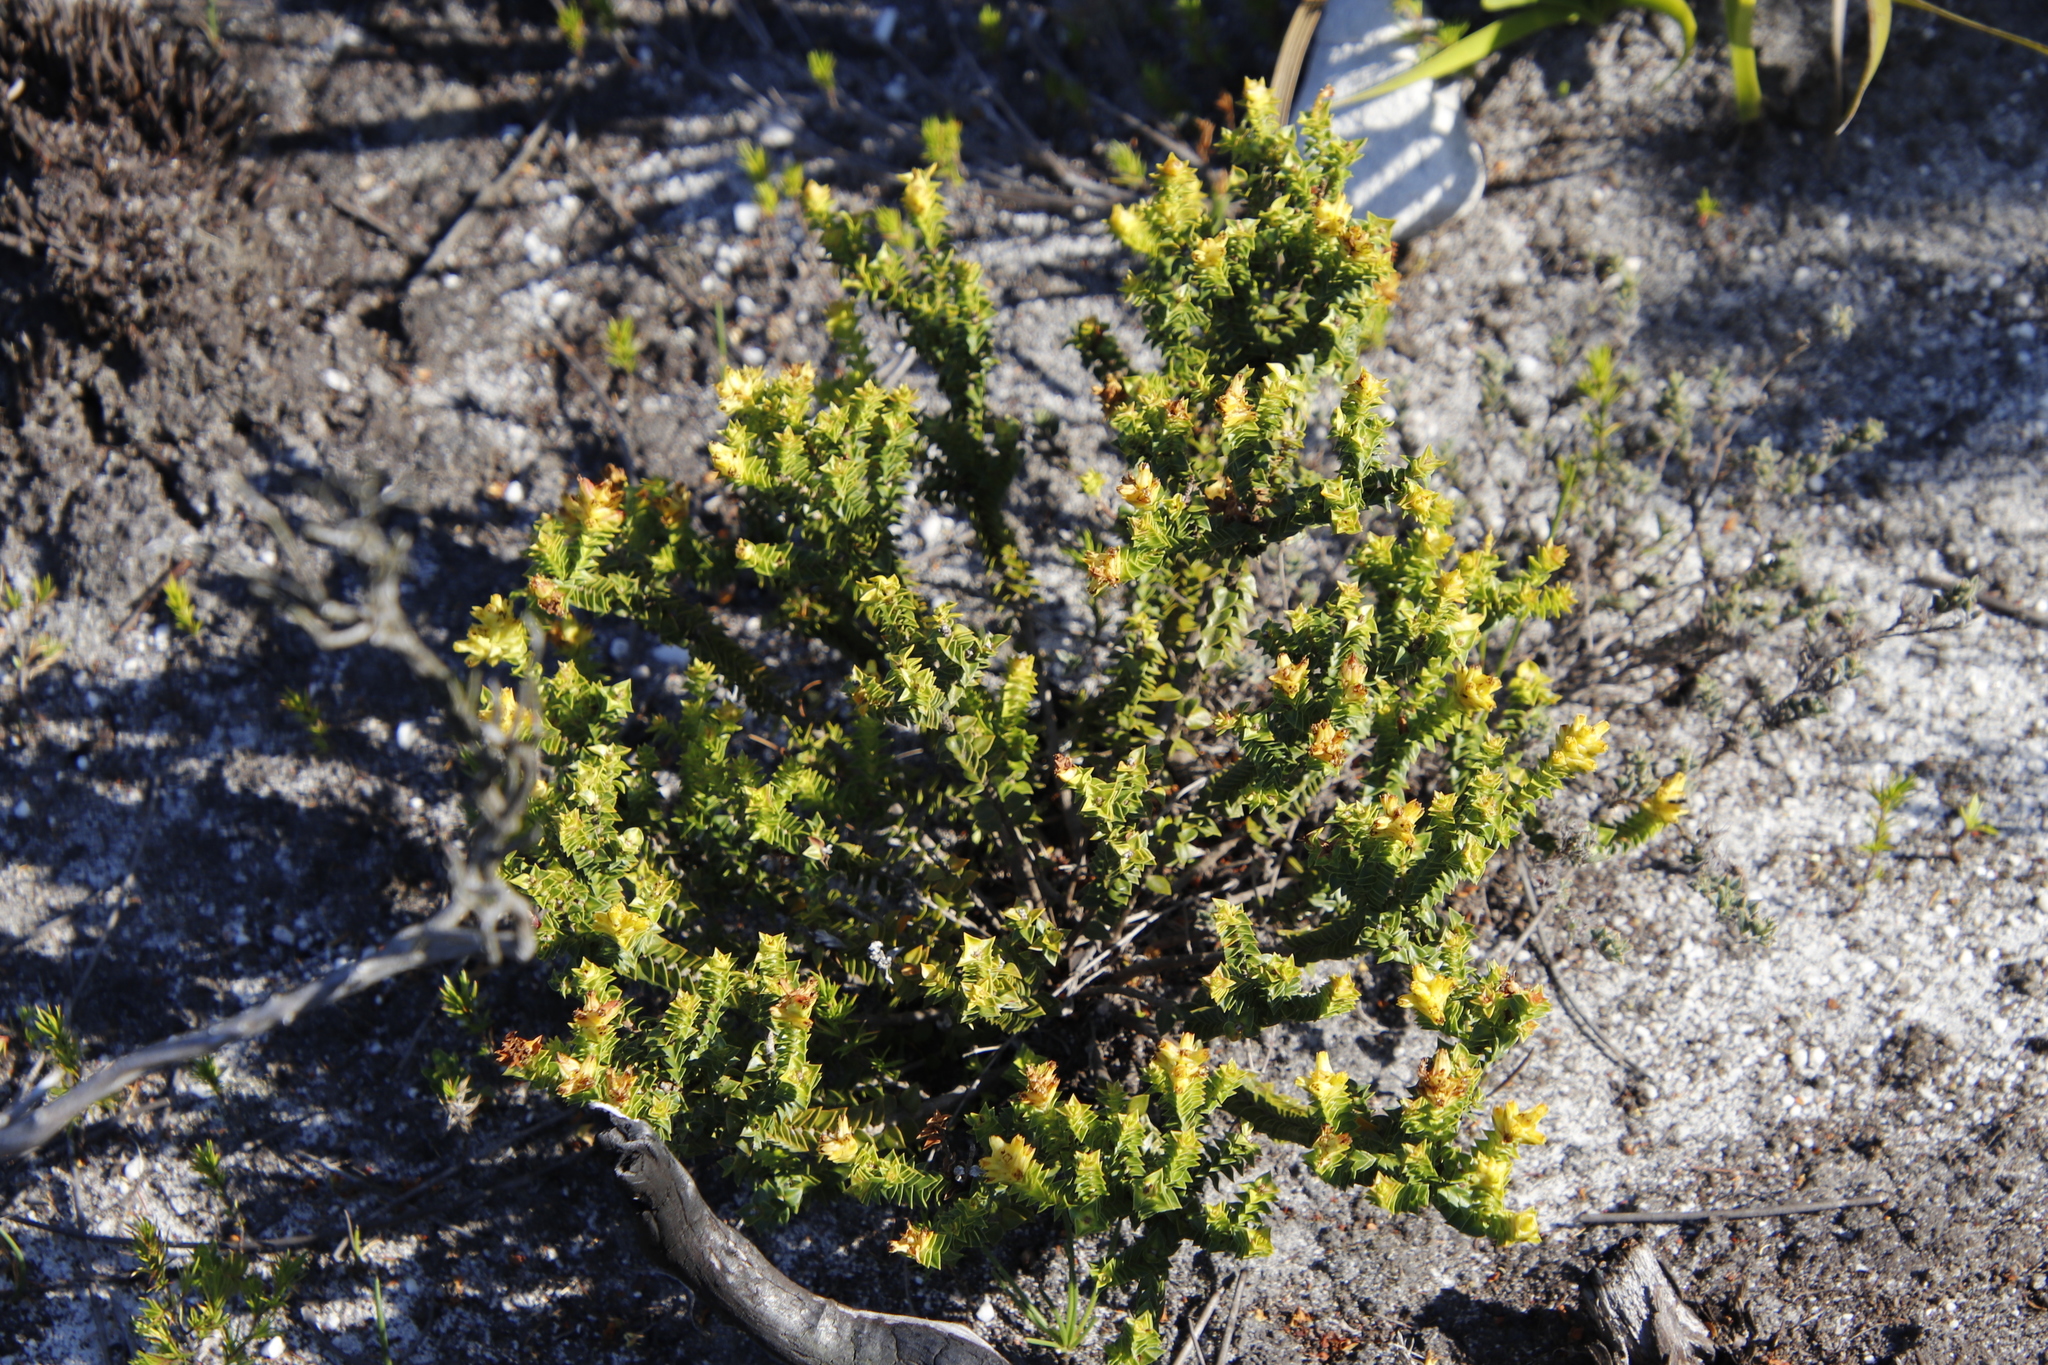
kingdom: Plantae
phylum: Tracheophyta
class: Magnoliopsida
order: Myrtales
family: Penaeaceae
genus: Penaea
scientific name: Penaea mucronata
